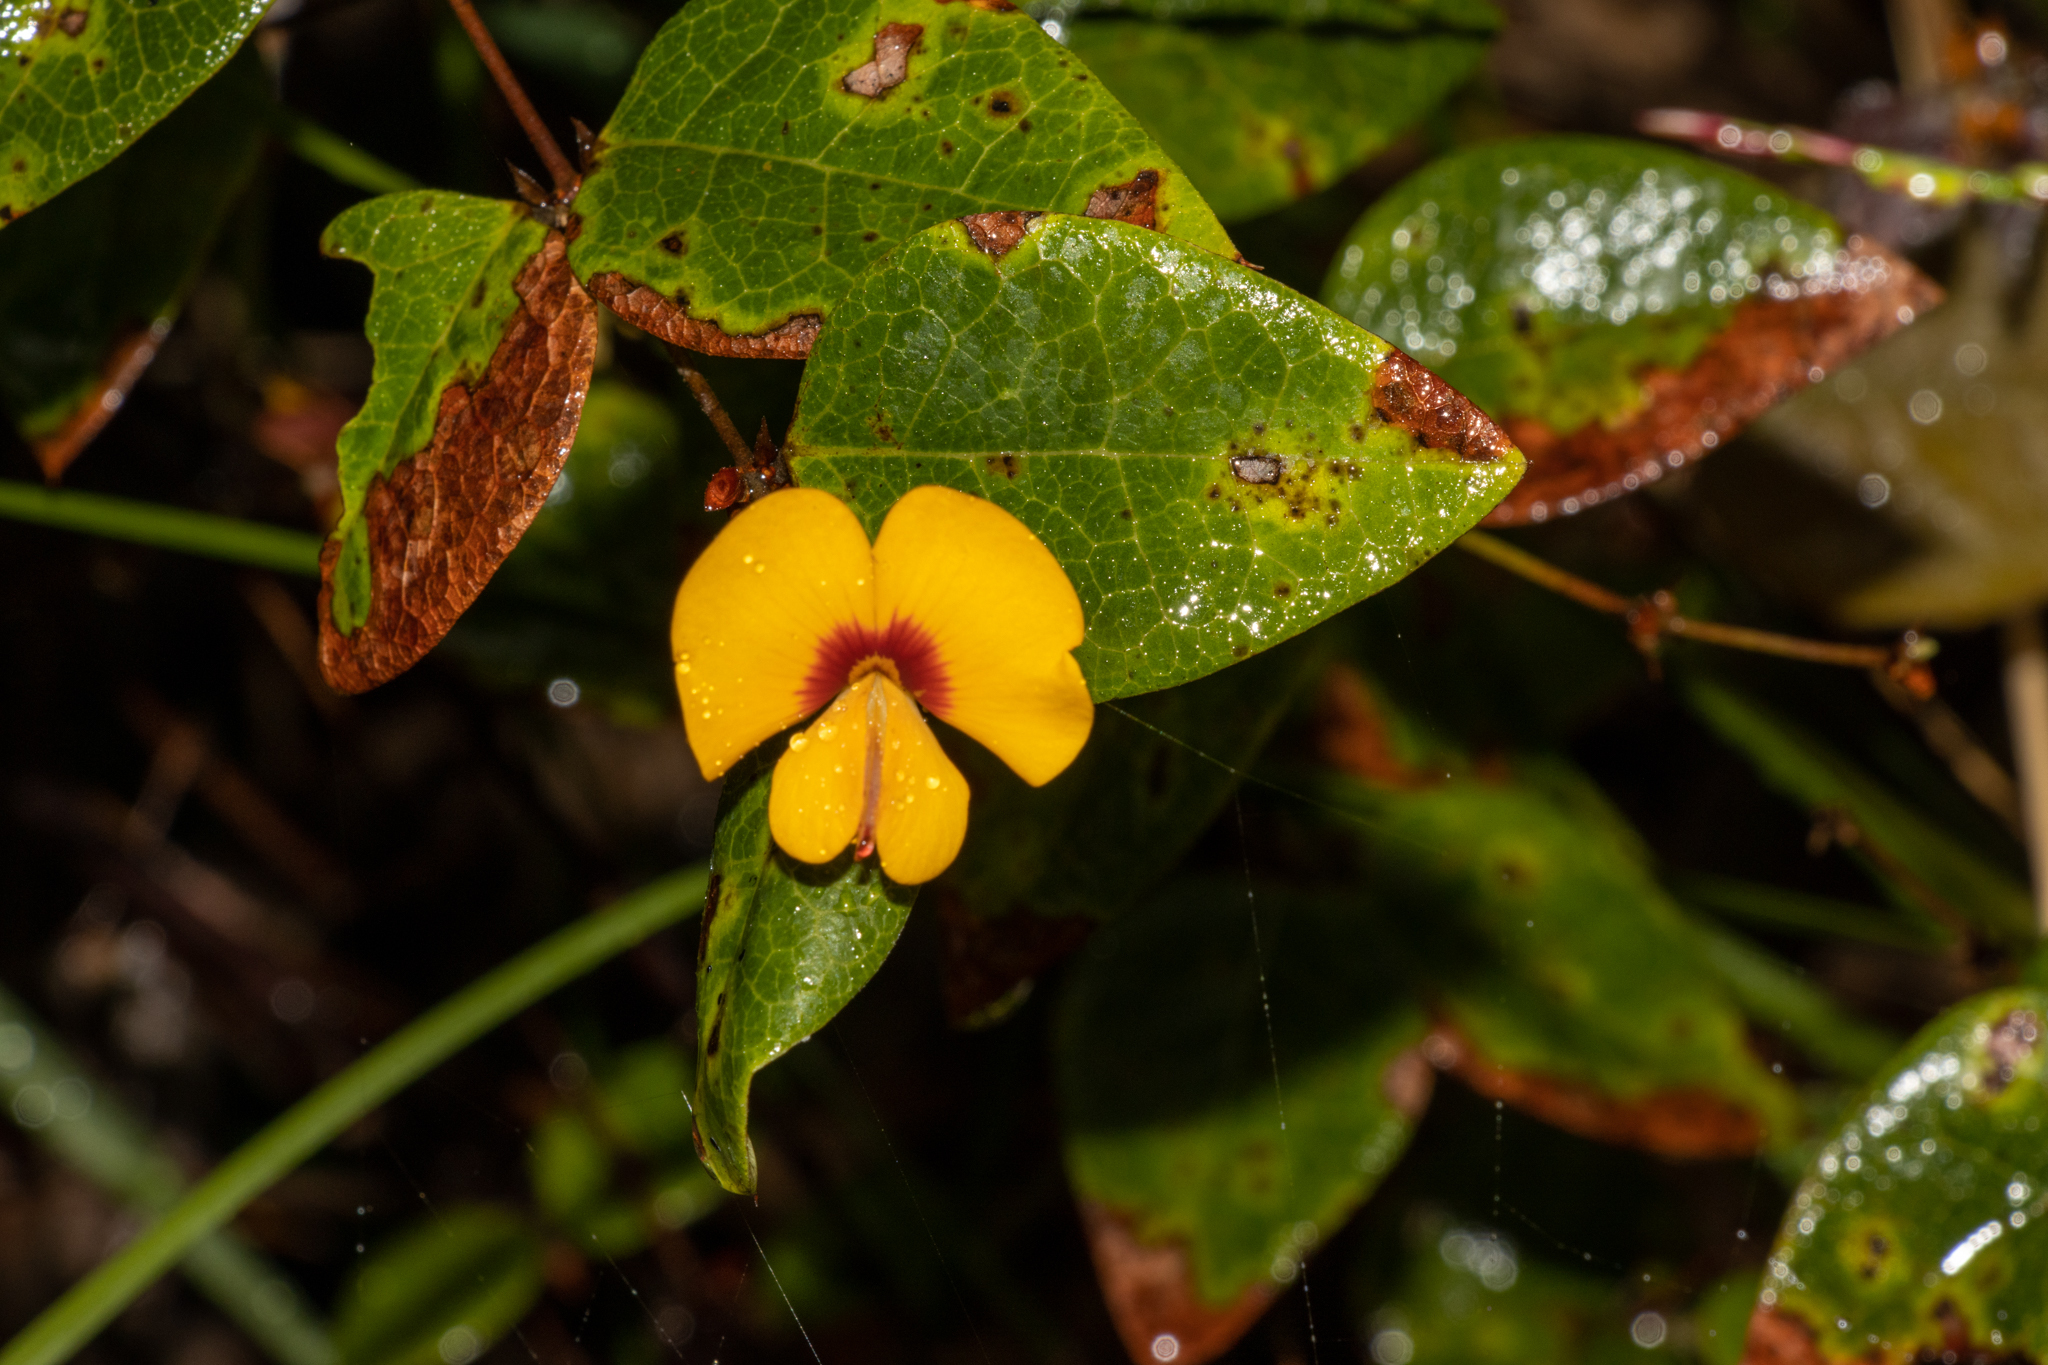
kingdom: Plantae
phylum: Tracheophyta
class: Magnoliopsida
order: Fabales
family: Fabaceae
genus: Platylobium
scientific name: Platylobium formosum
